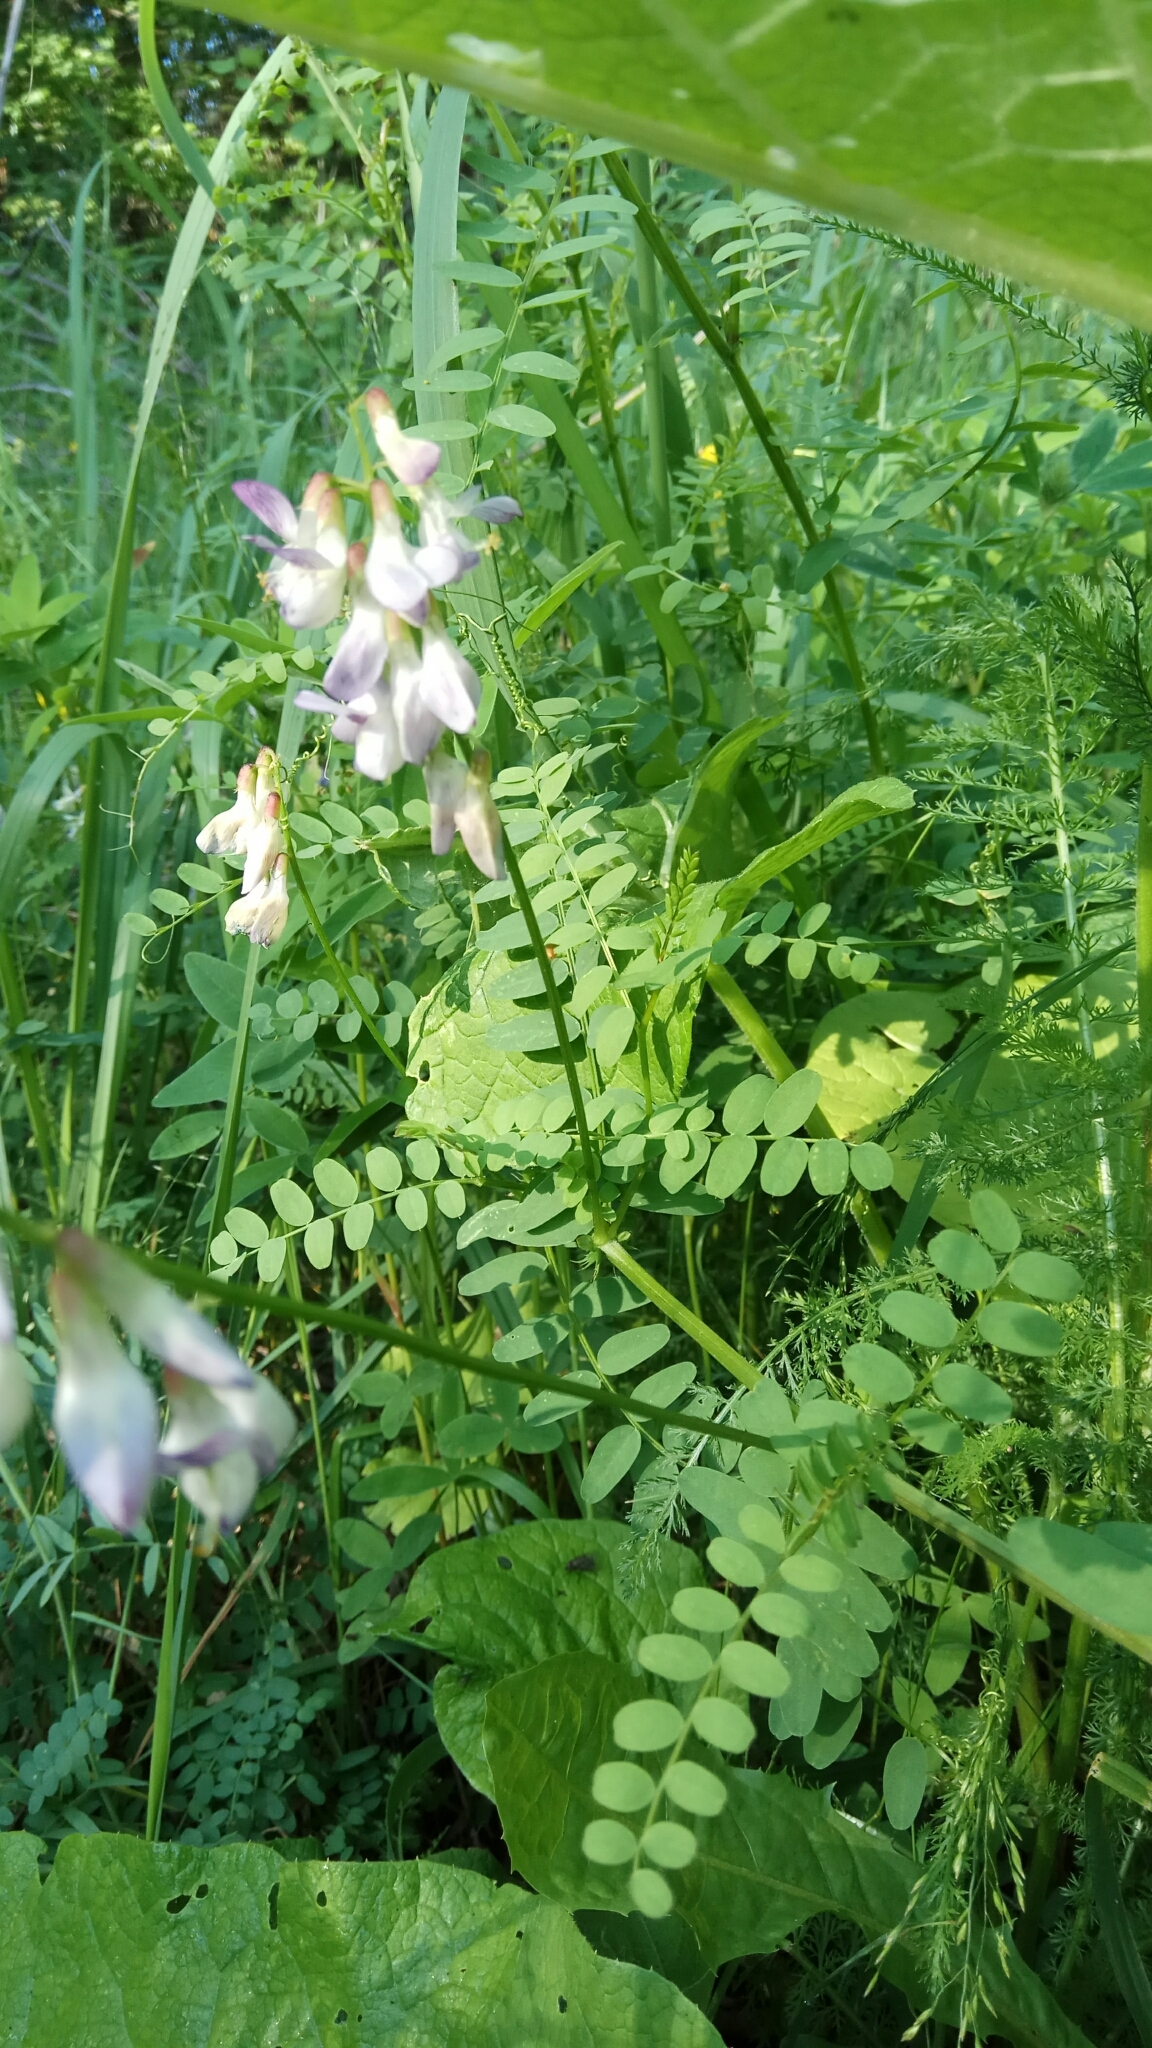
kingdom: Plantae
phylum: Tracheophyta
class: Magnoliopsida
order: Fabales
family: Fabaceae
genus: Vicia
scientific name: Vicia sylvatica
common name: Wood vetch
